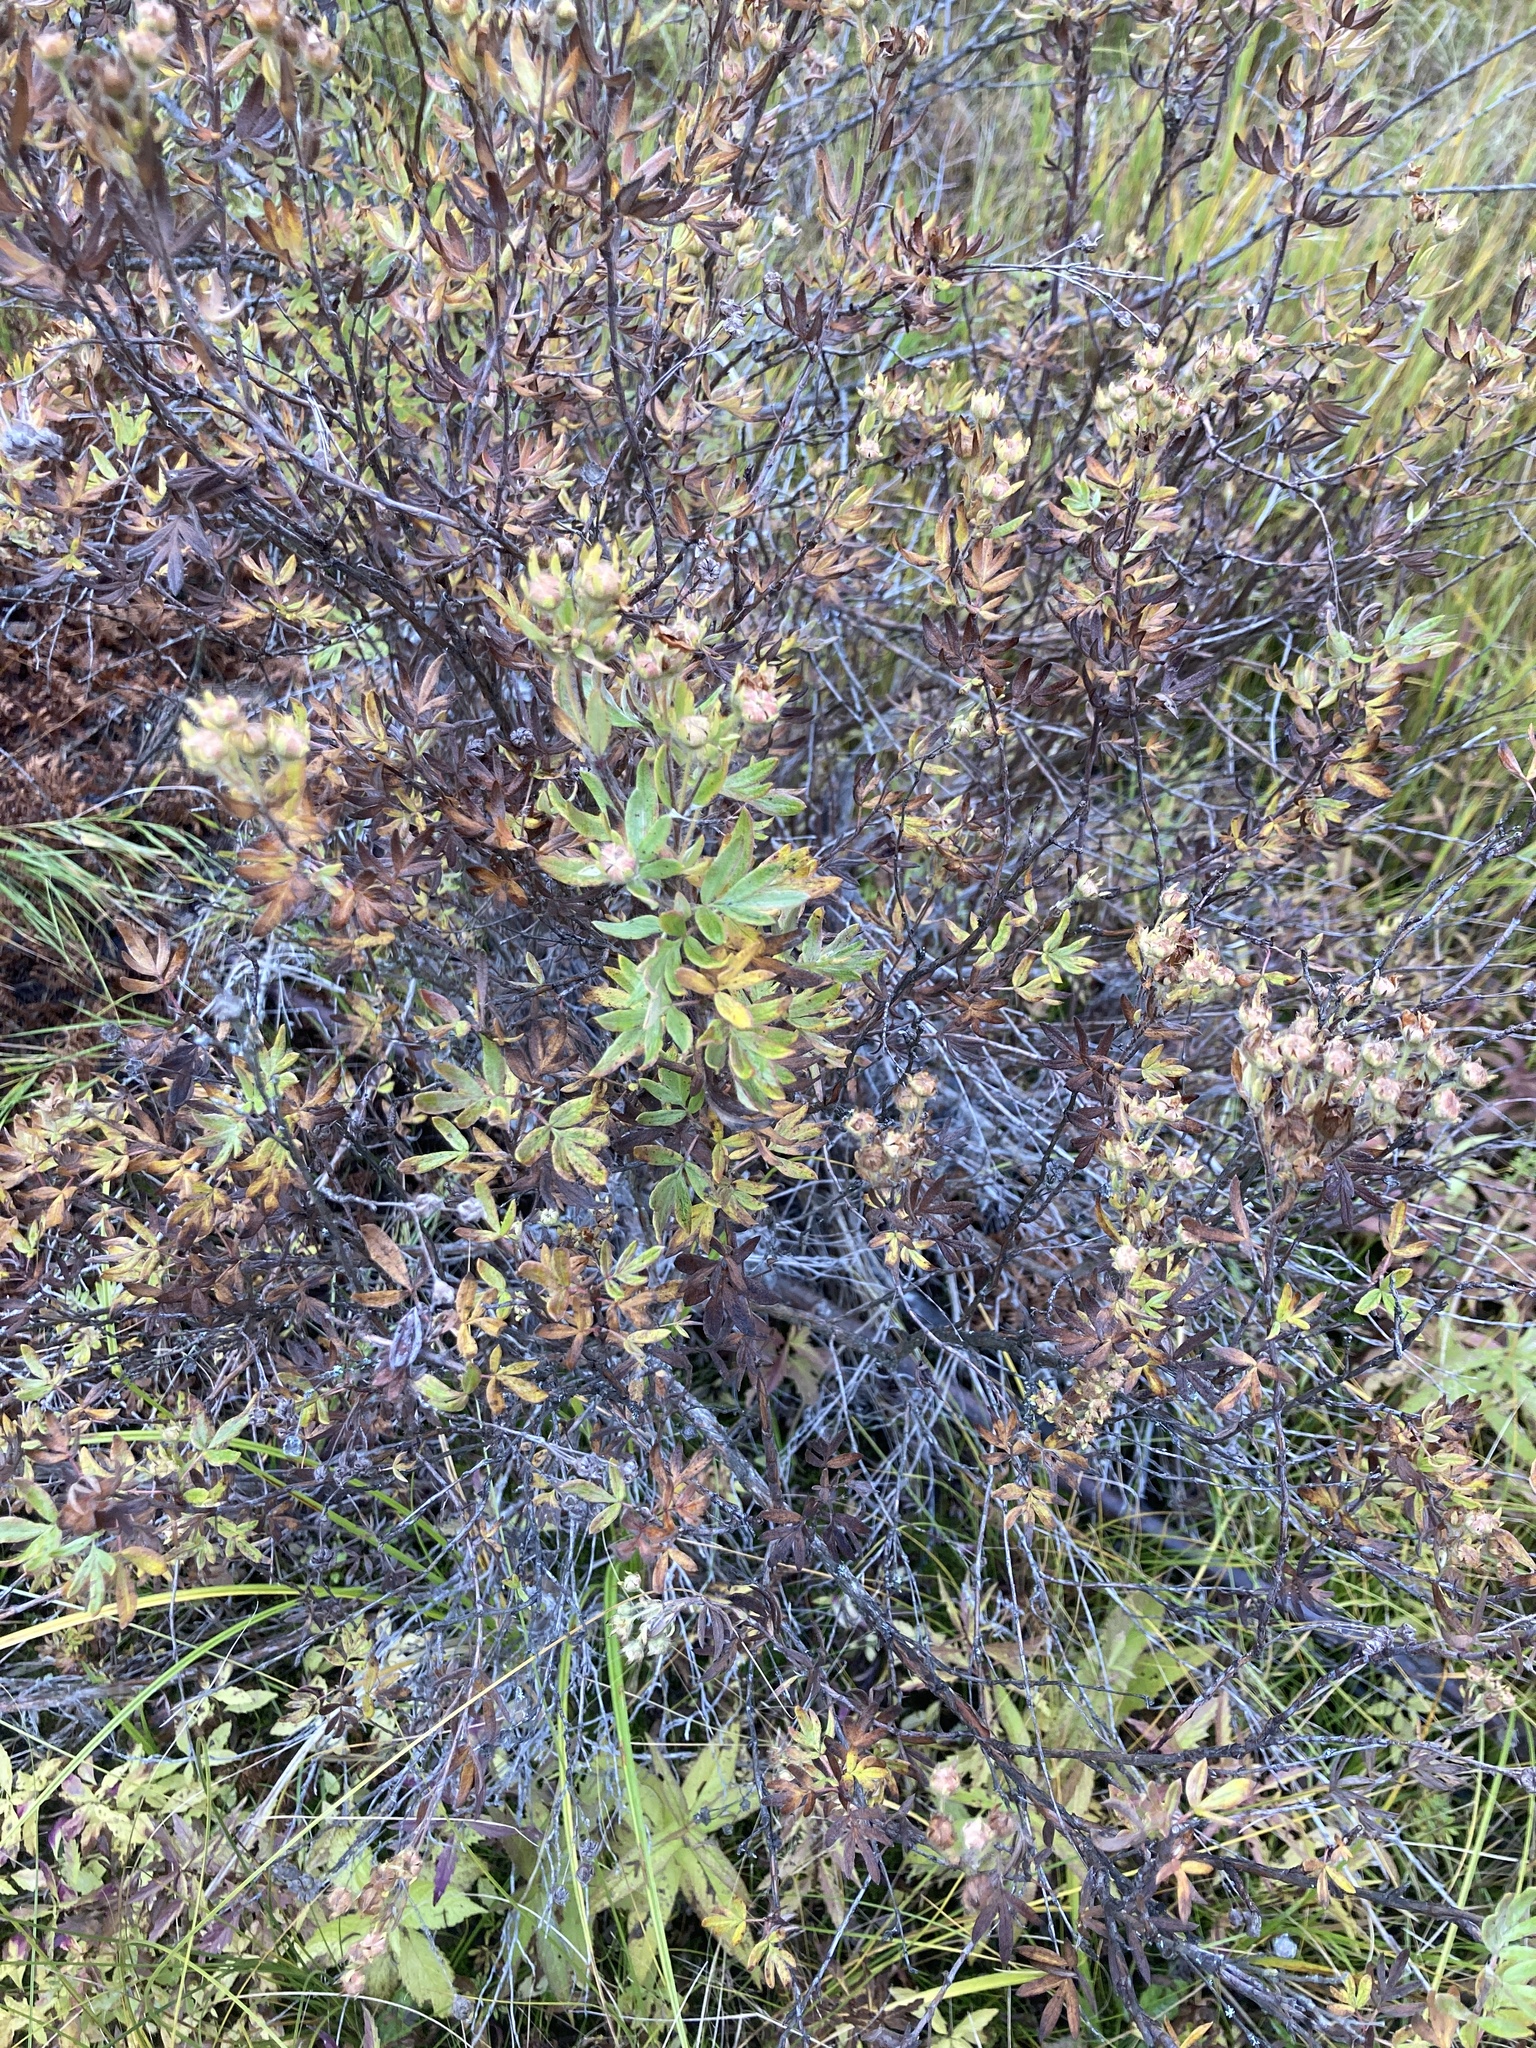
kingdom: Plantae
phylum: Tracheophyta
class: Magnoliopsida
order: Rosales
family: Rosaceae
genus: Dasiphora
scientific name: Dasiphora fruticosa
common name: Shrubby cinquefoil
